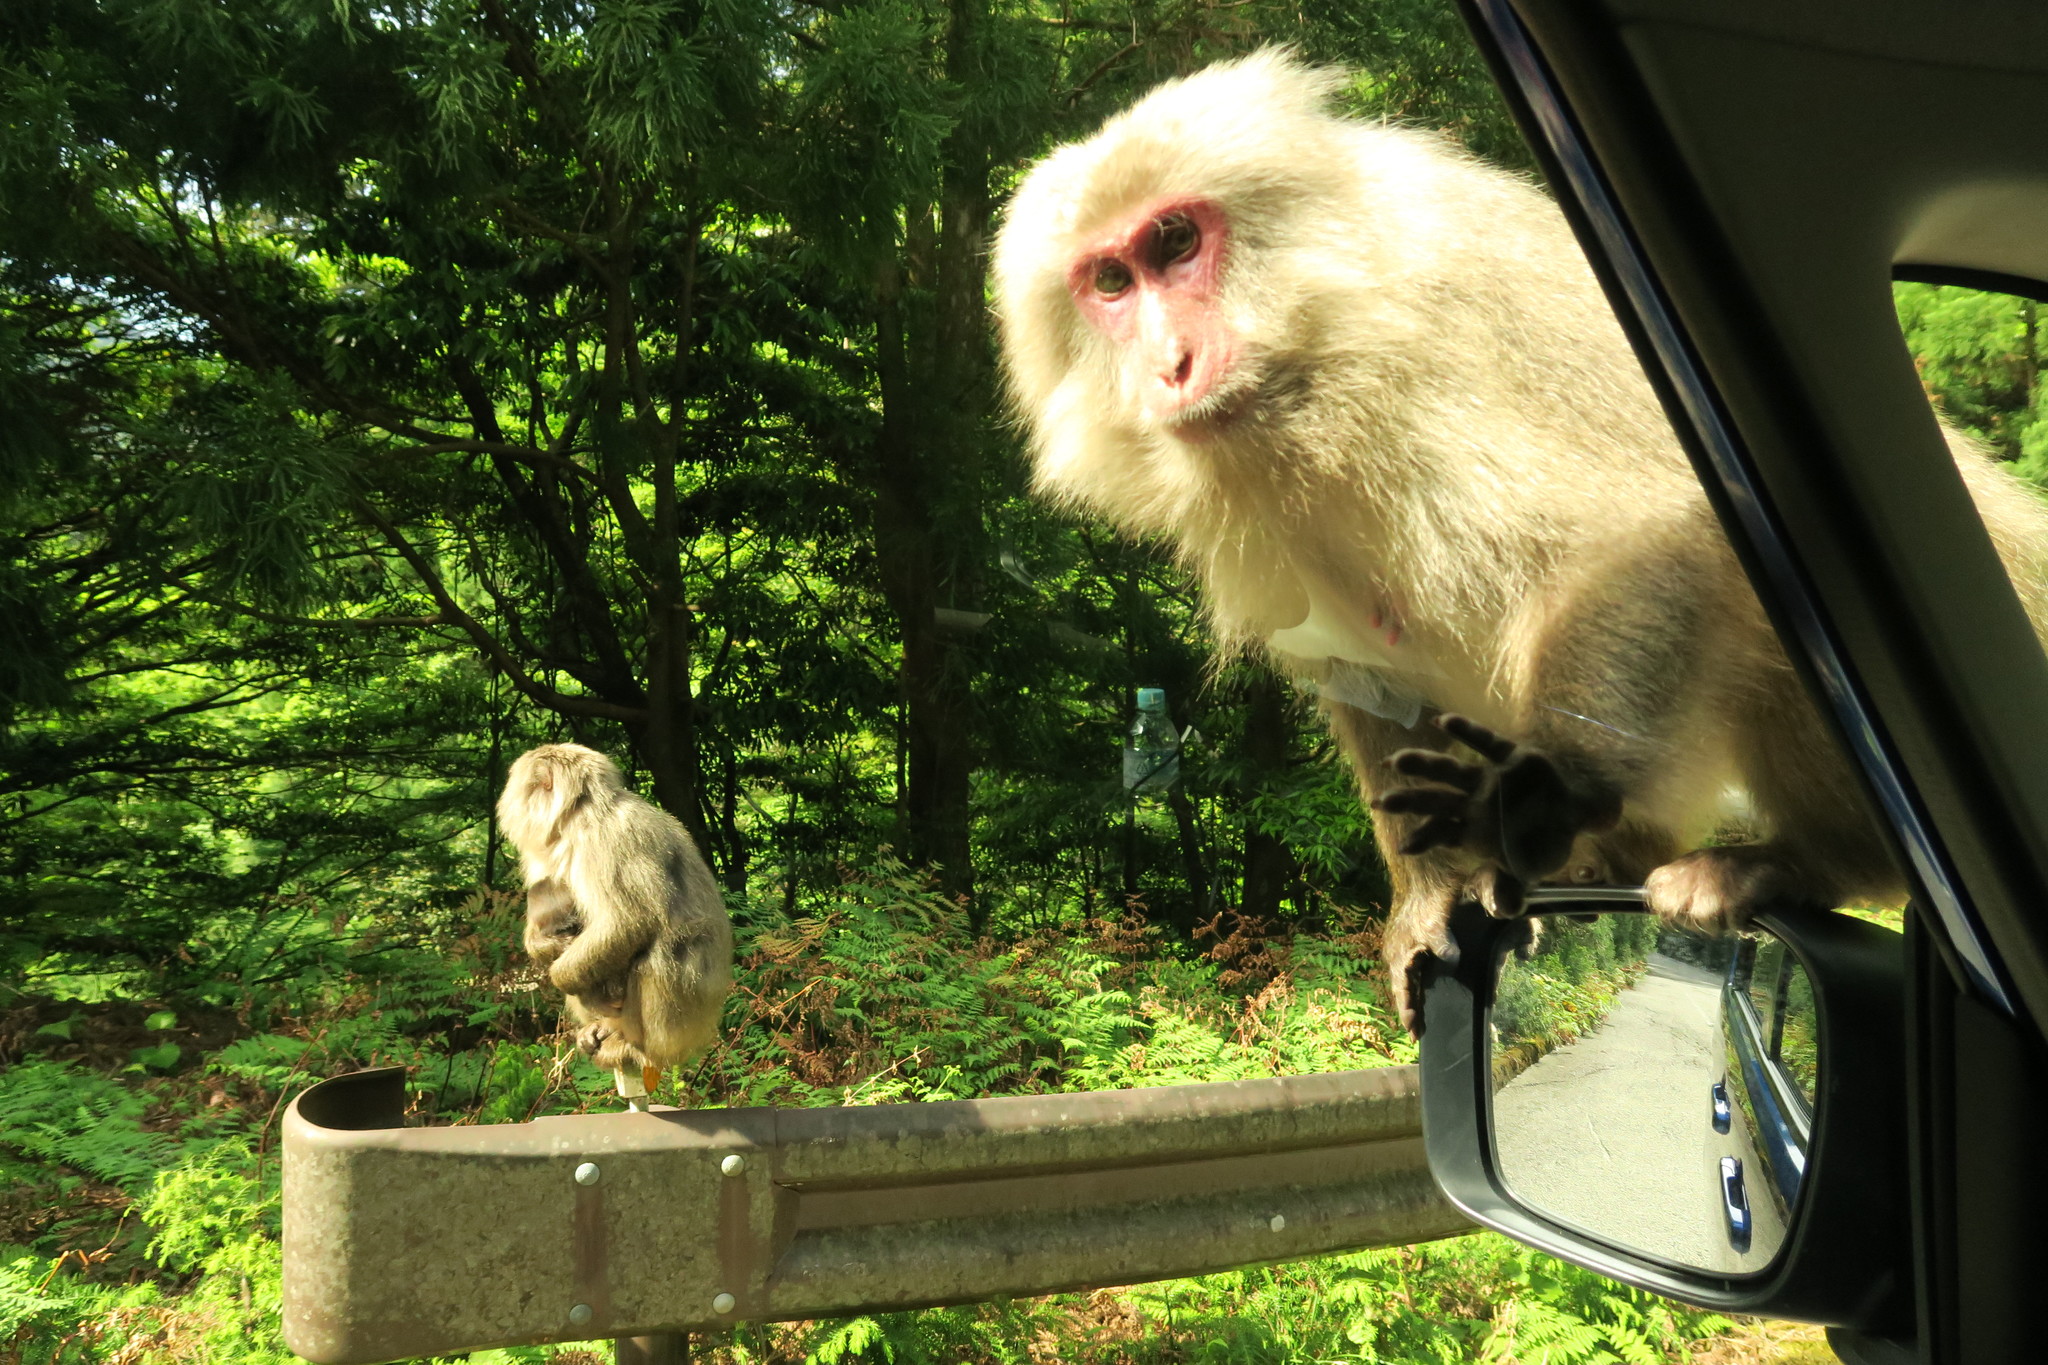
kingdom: Animalia
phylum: Chordata
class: Mammalia
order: Primates
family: Cercopithecidae
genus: Macaca
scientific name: Macaca fuscata
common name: Japanese macaque
